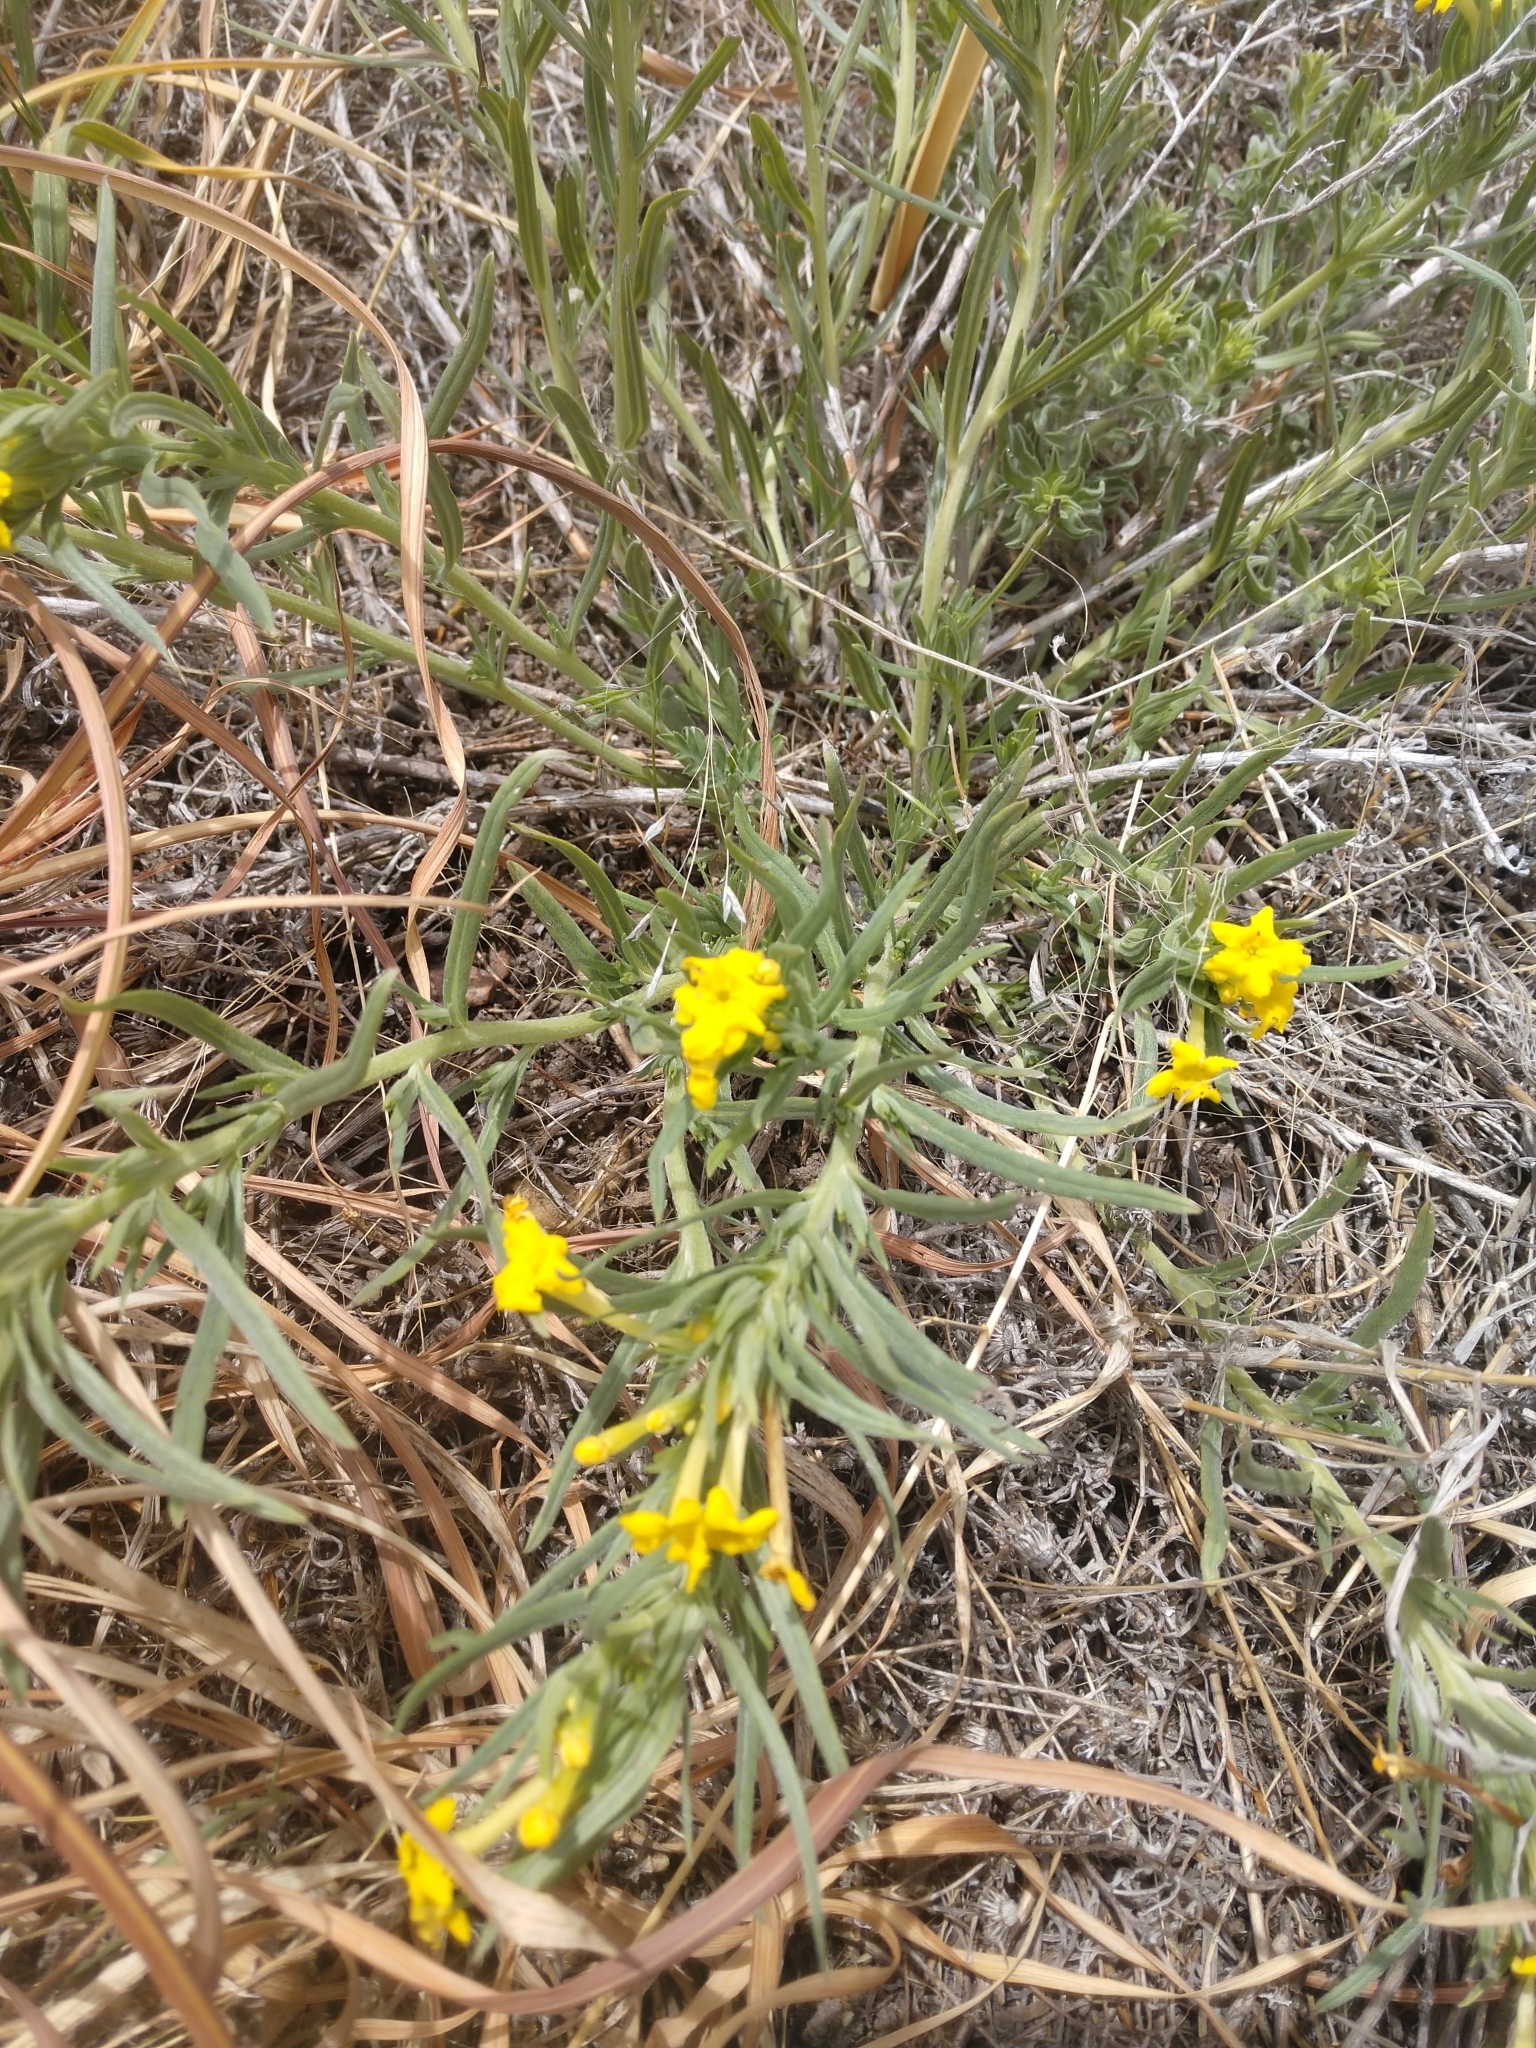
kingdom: Plantae
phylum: Tracheophyta
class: Magnoliopsida
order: Boraginales
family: Boraginaceae
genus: Lithospermum
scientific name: Lithospermum incisum
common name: Fringed gromwell
